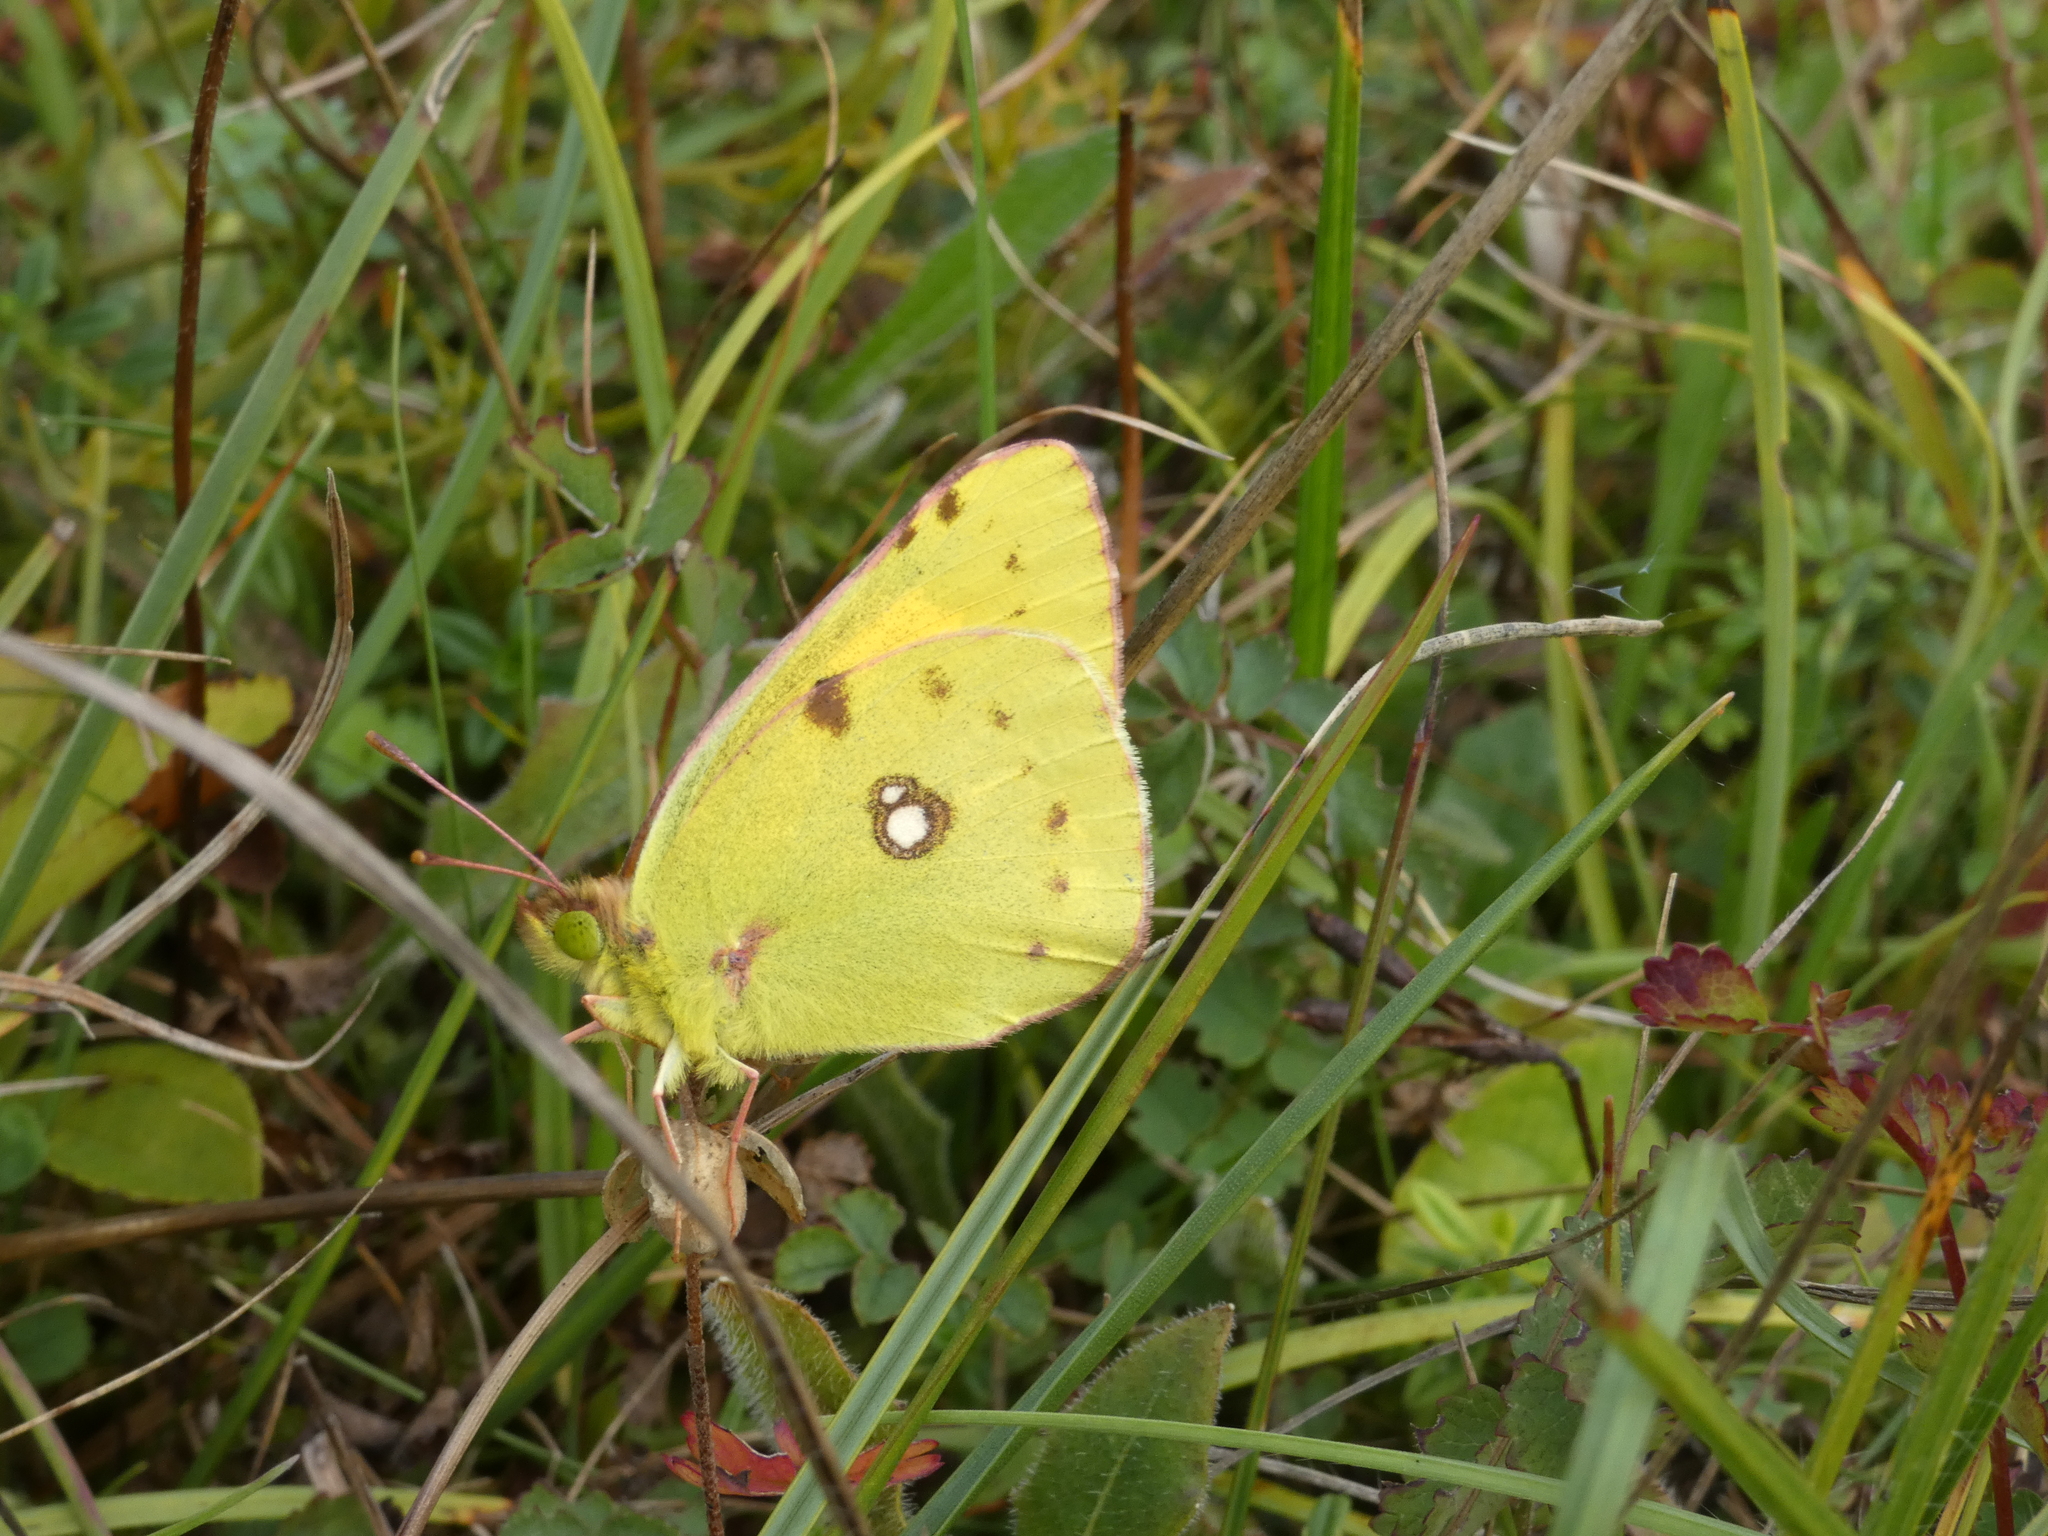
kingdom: Animalia
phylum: Arthropoda
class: Insecta
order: Lepidoptera
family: Pieridae
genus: Colias
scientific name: Colias croceus
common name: Clouded yellow
